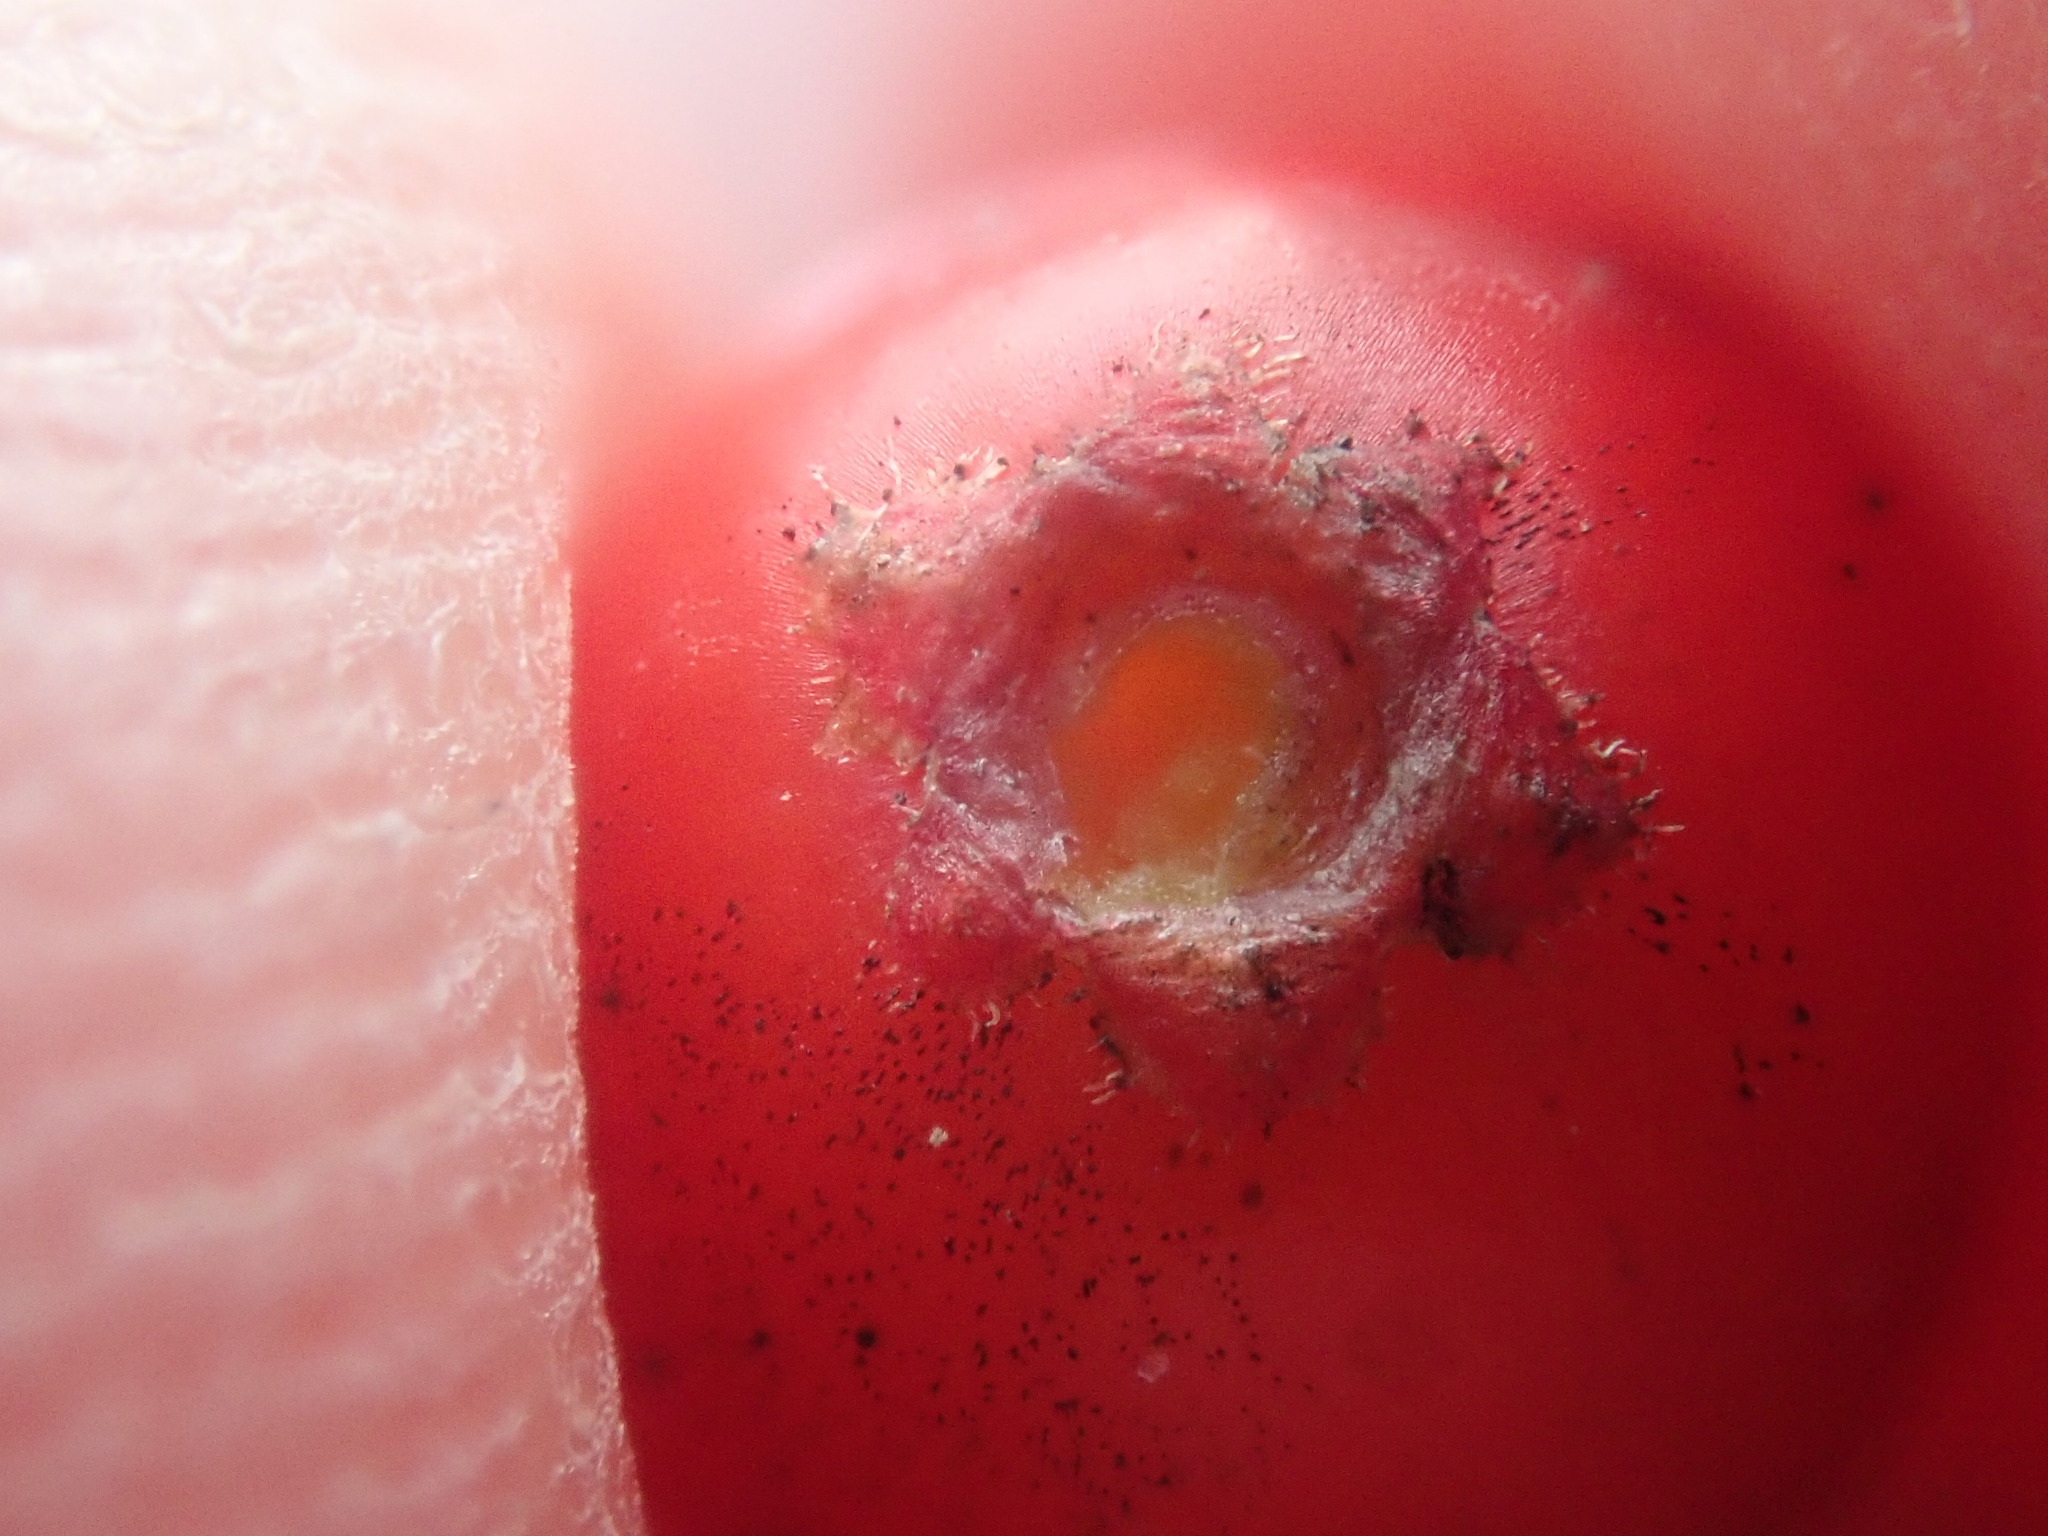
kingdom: Plantae
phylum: Tracheophyta
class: Magnoliopsida
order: Aquifoliales
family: Aquifoliaceae
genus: Ilex
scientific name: Ilex verticillata
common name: Virginia winterberry
